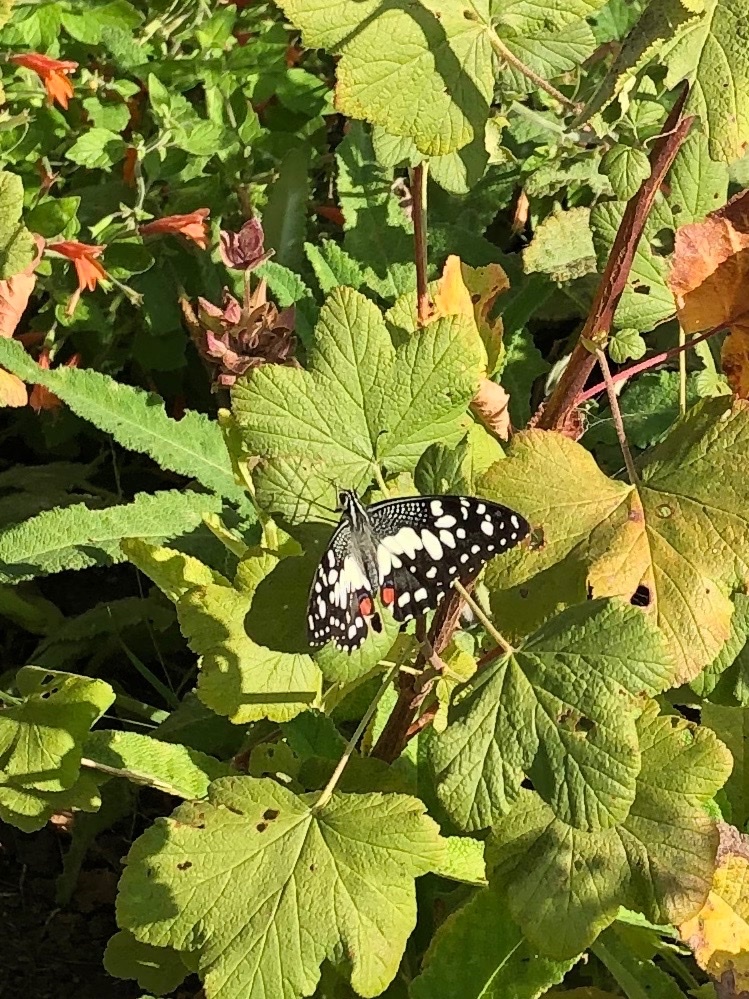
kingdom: Animalia
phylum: Arthropoda
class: Insecta
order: Lepidoptera
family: Papilionidae
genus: Papilio
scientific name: Papilio demoleus
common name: Lime butterfly
